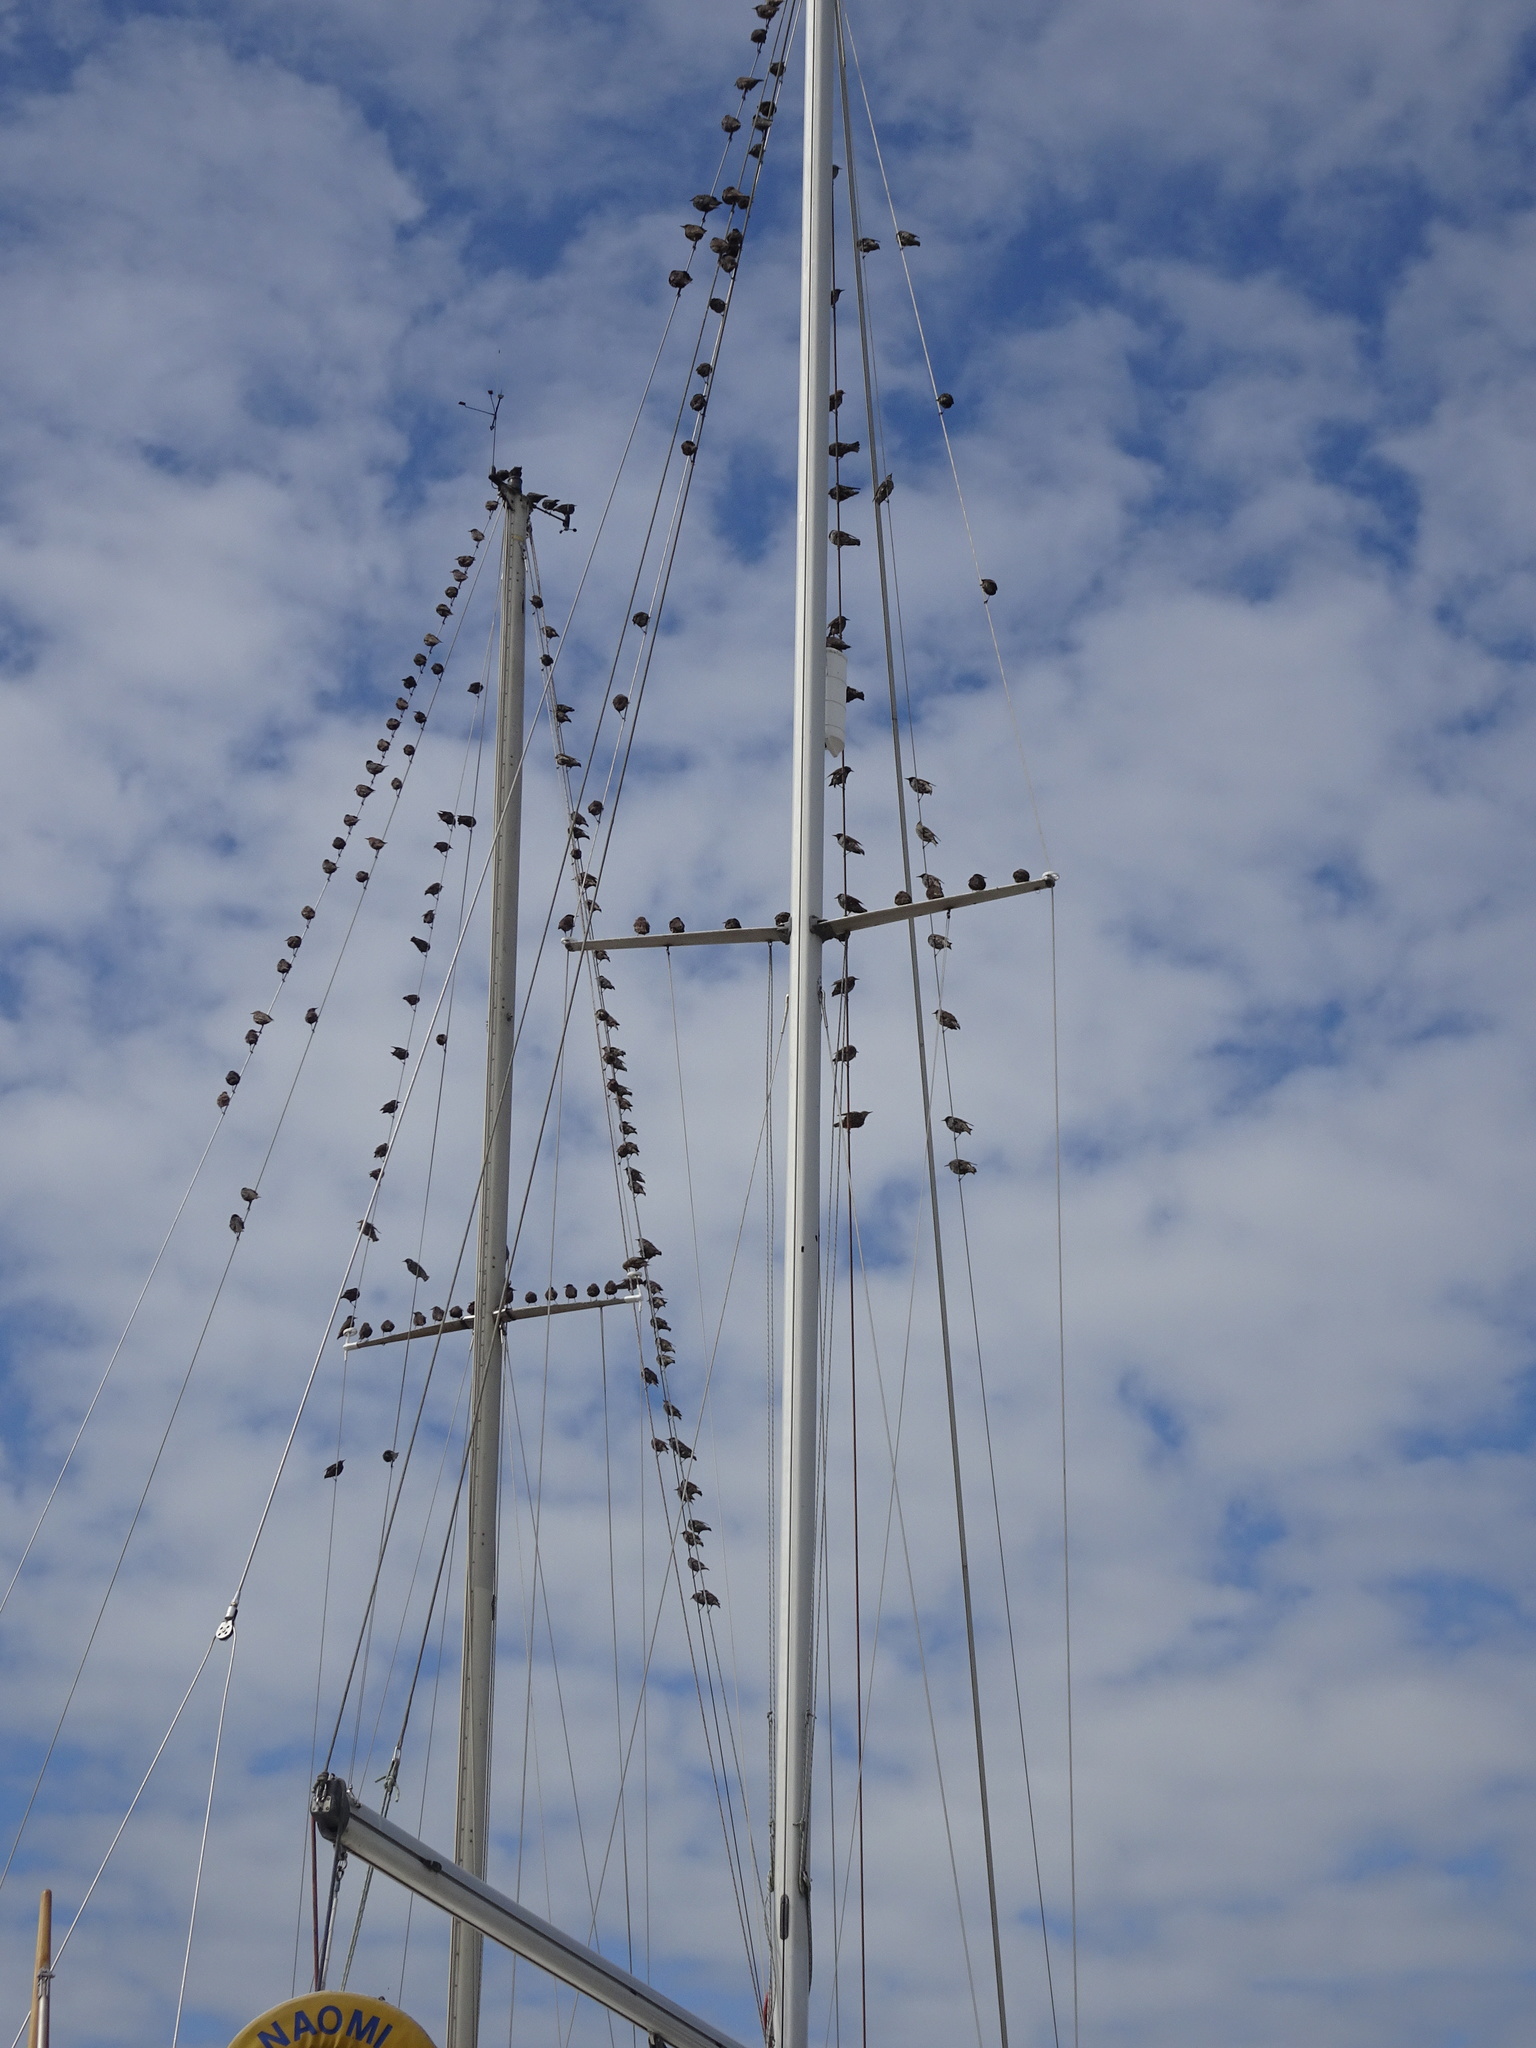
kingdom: Animalia
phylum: Chordata
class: Aves
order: Passeriformes
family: Sturnidae
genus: Sturnus
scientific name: Sturnus vulgaris
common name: Common starling
